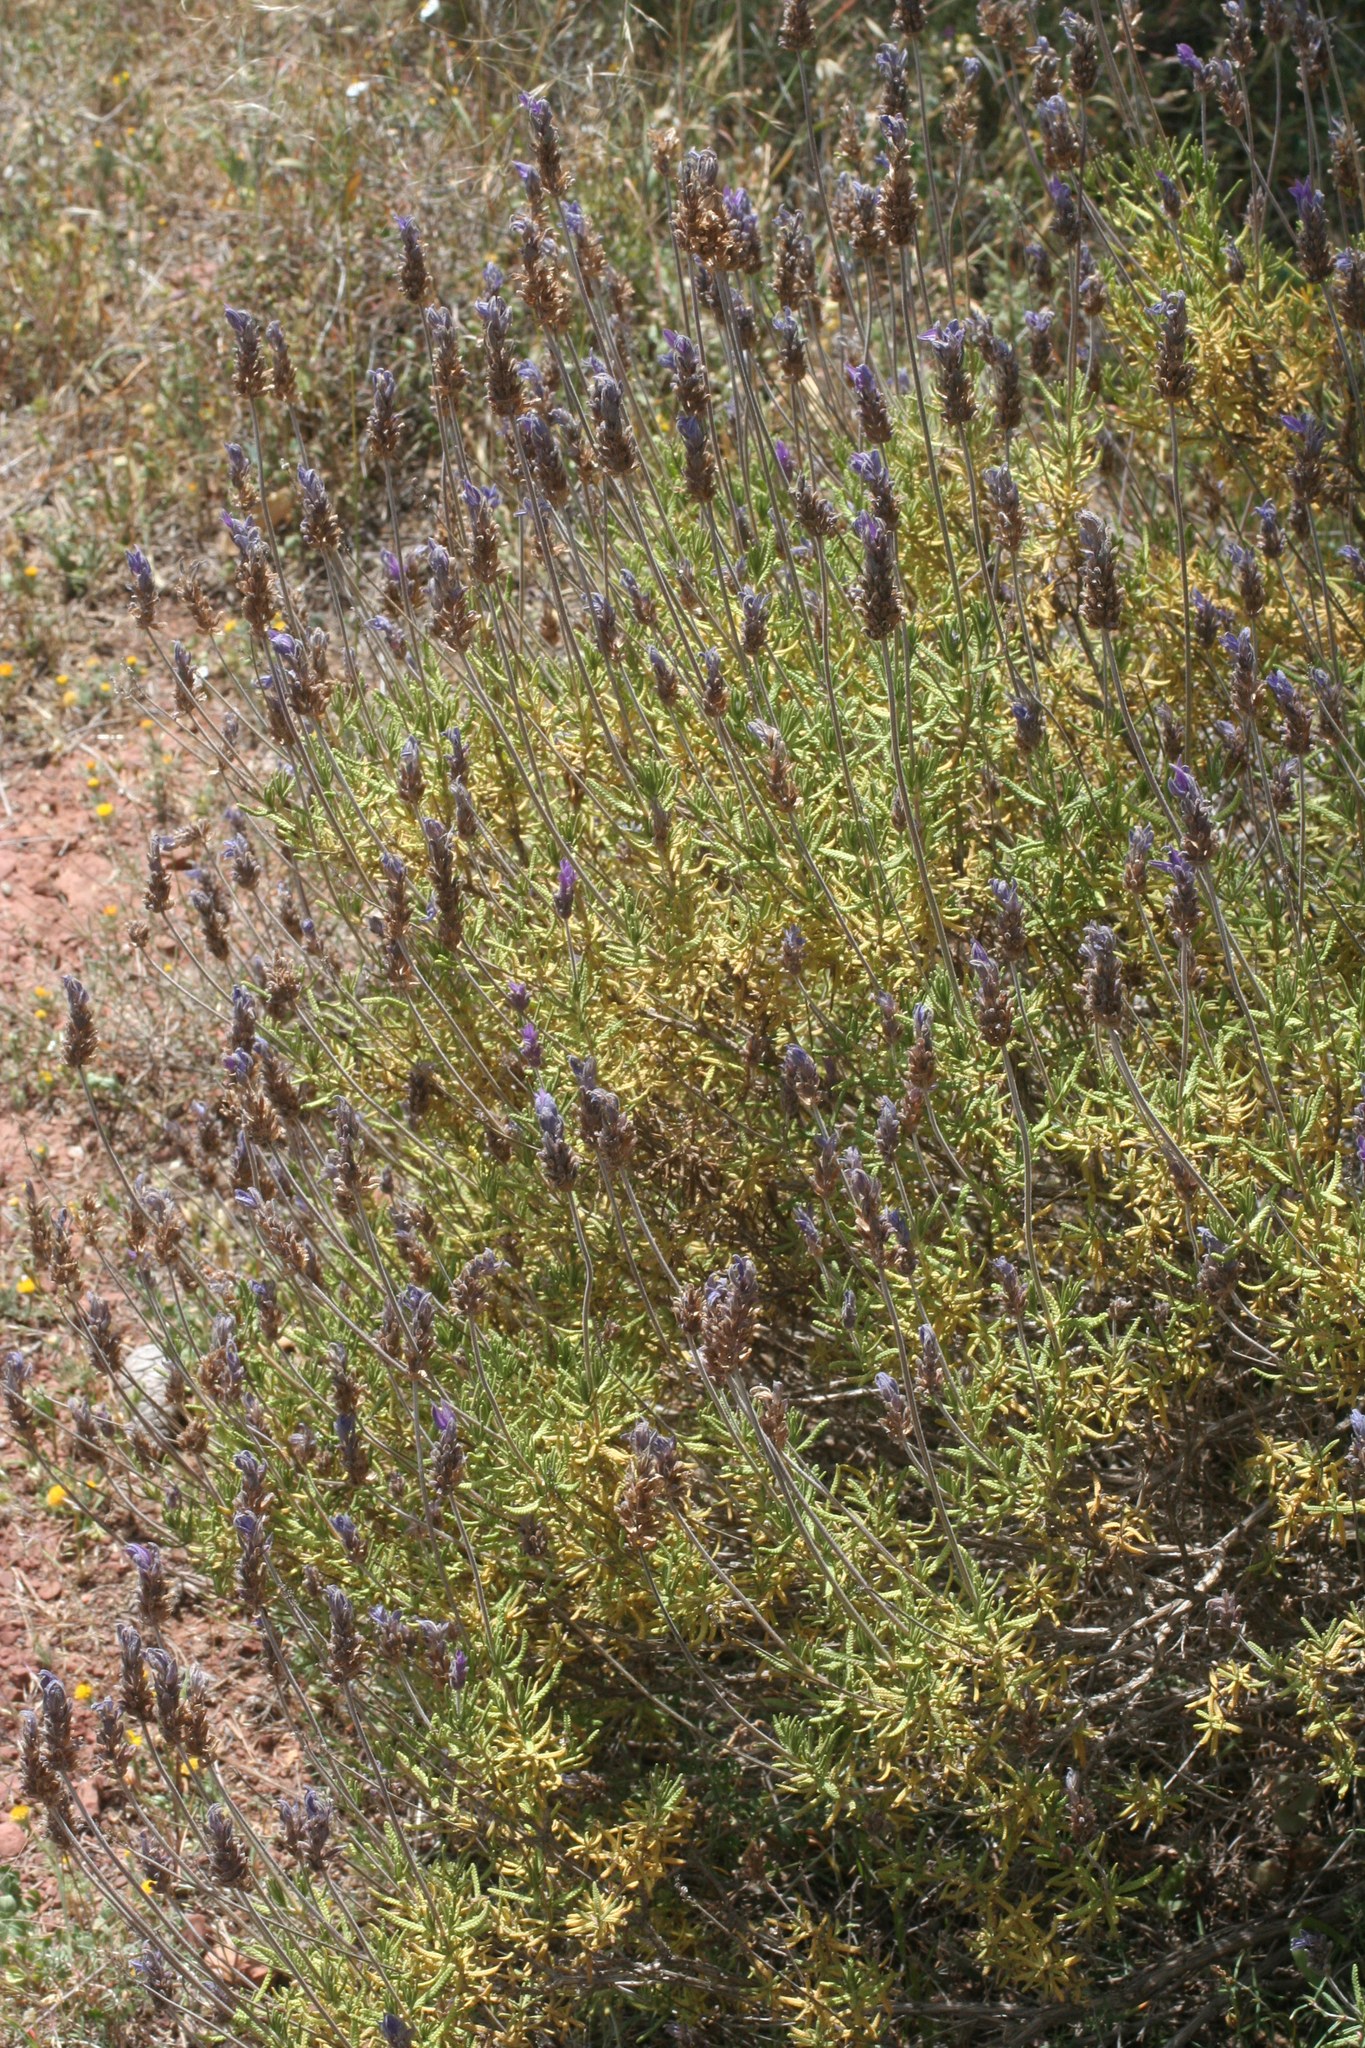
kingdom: Plantae
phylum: Tracheophyta
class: Magnoliopsida
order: Lamiales
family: Lamiaceae
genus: Lavandula
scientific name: Lavandula dentata
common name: French lavender
